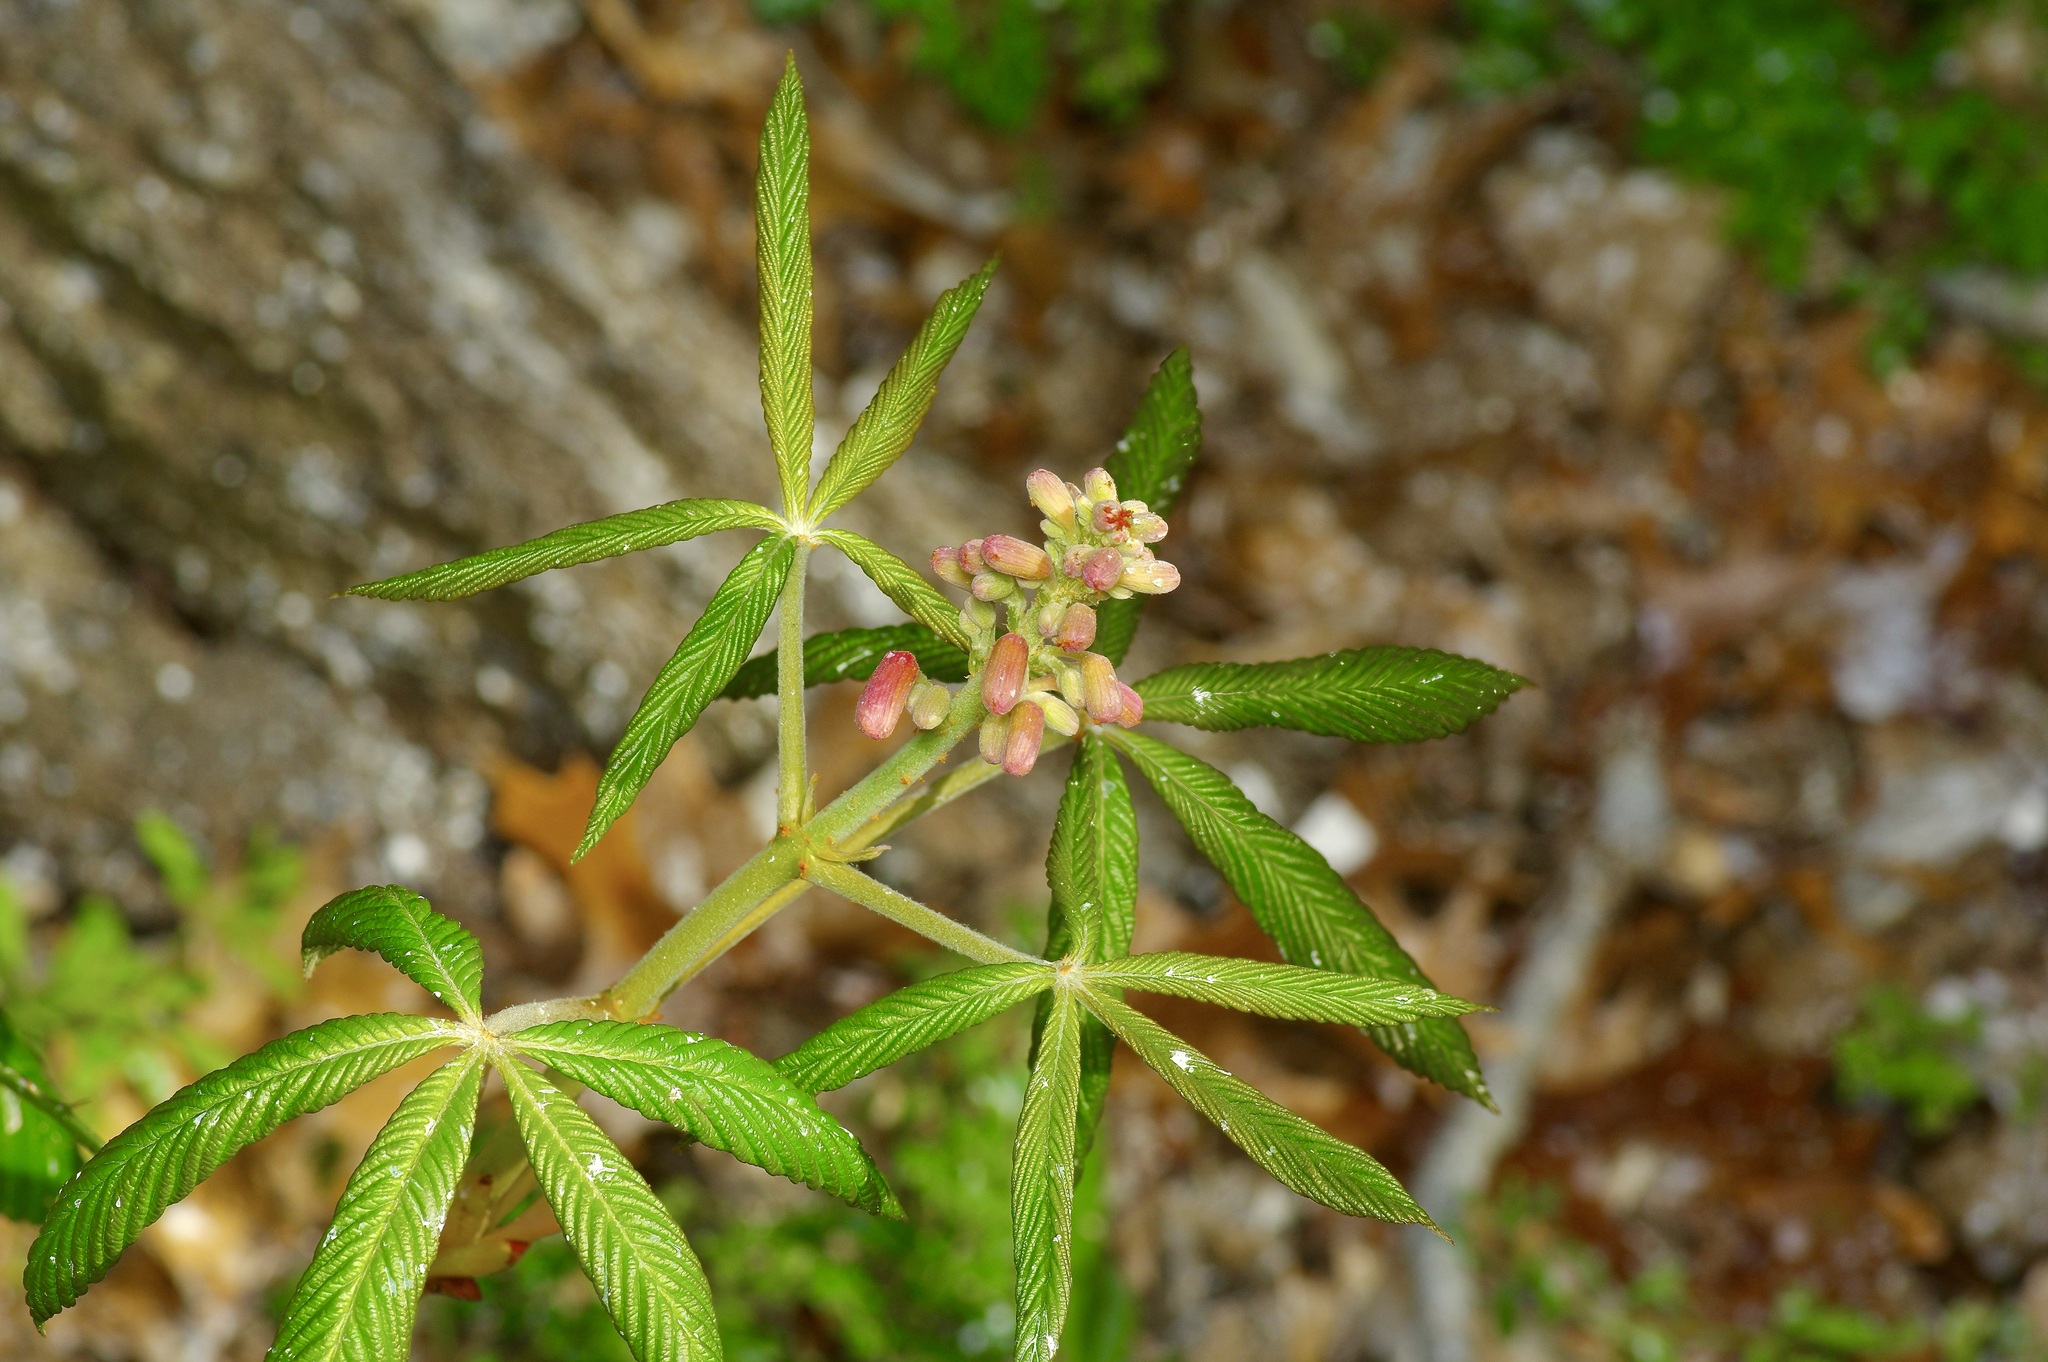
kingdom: Plantae
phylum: Tracheophyta
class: Magnoliopsida
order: Sapindales
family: Sapindaceae
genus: Aesculus
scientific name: Aesculus pavia
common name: Red buckeye
